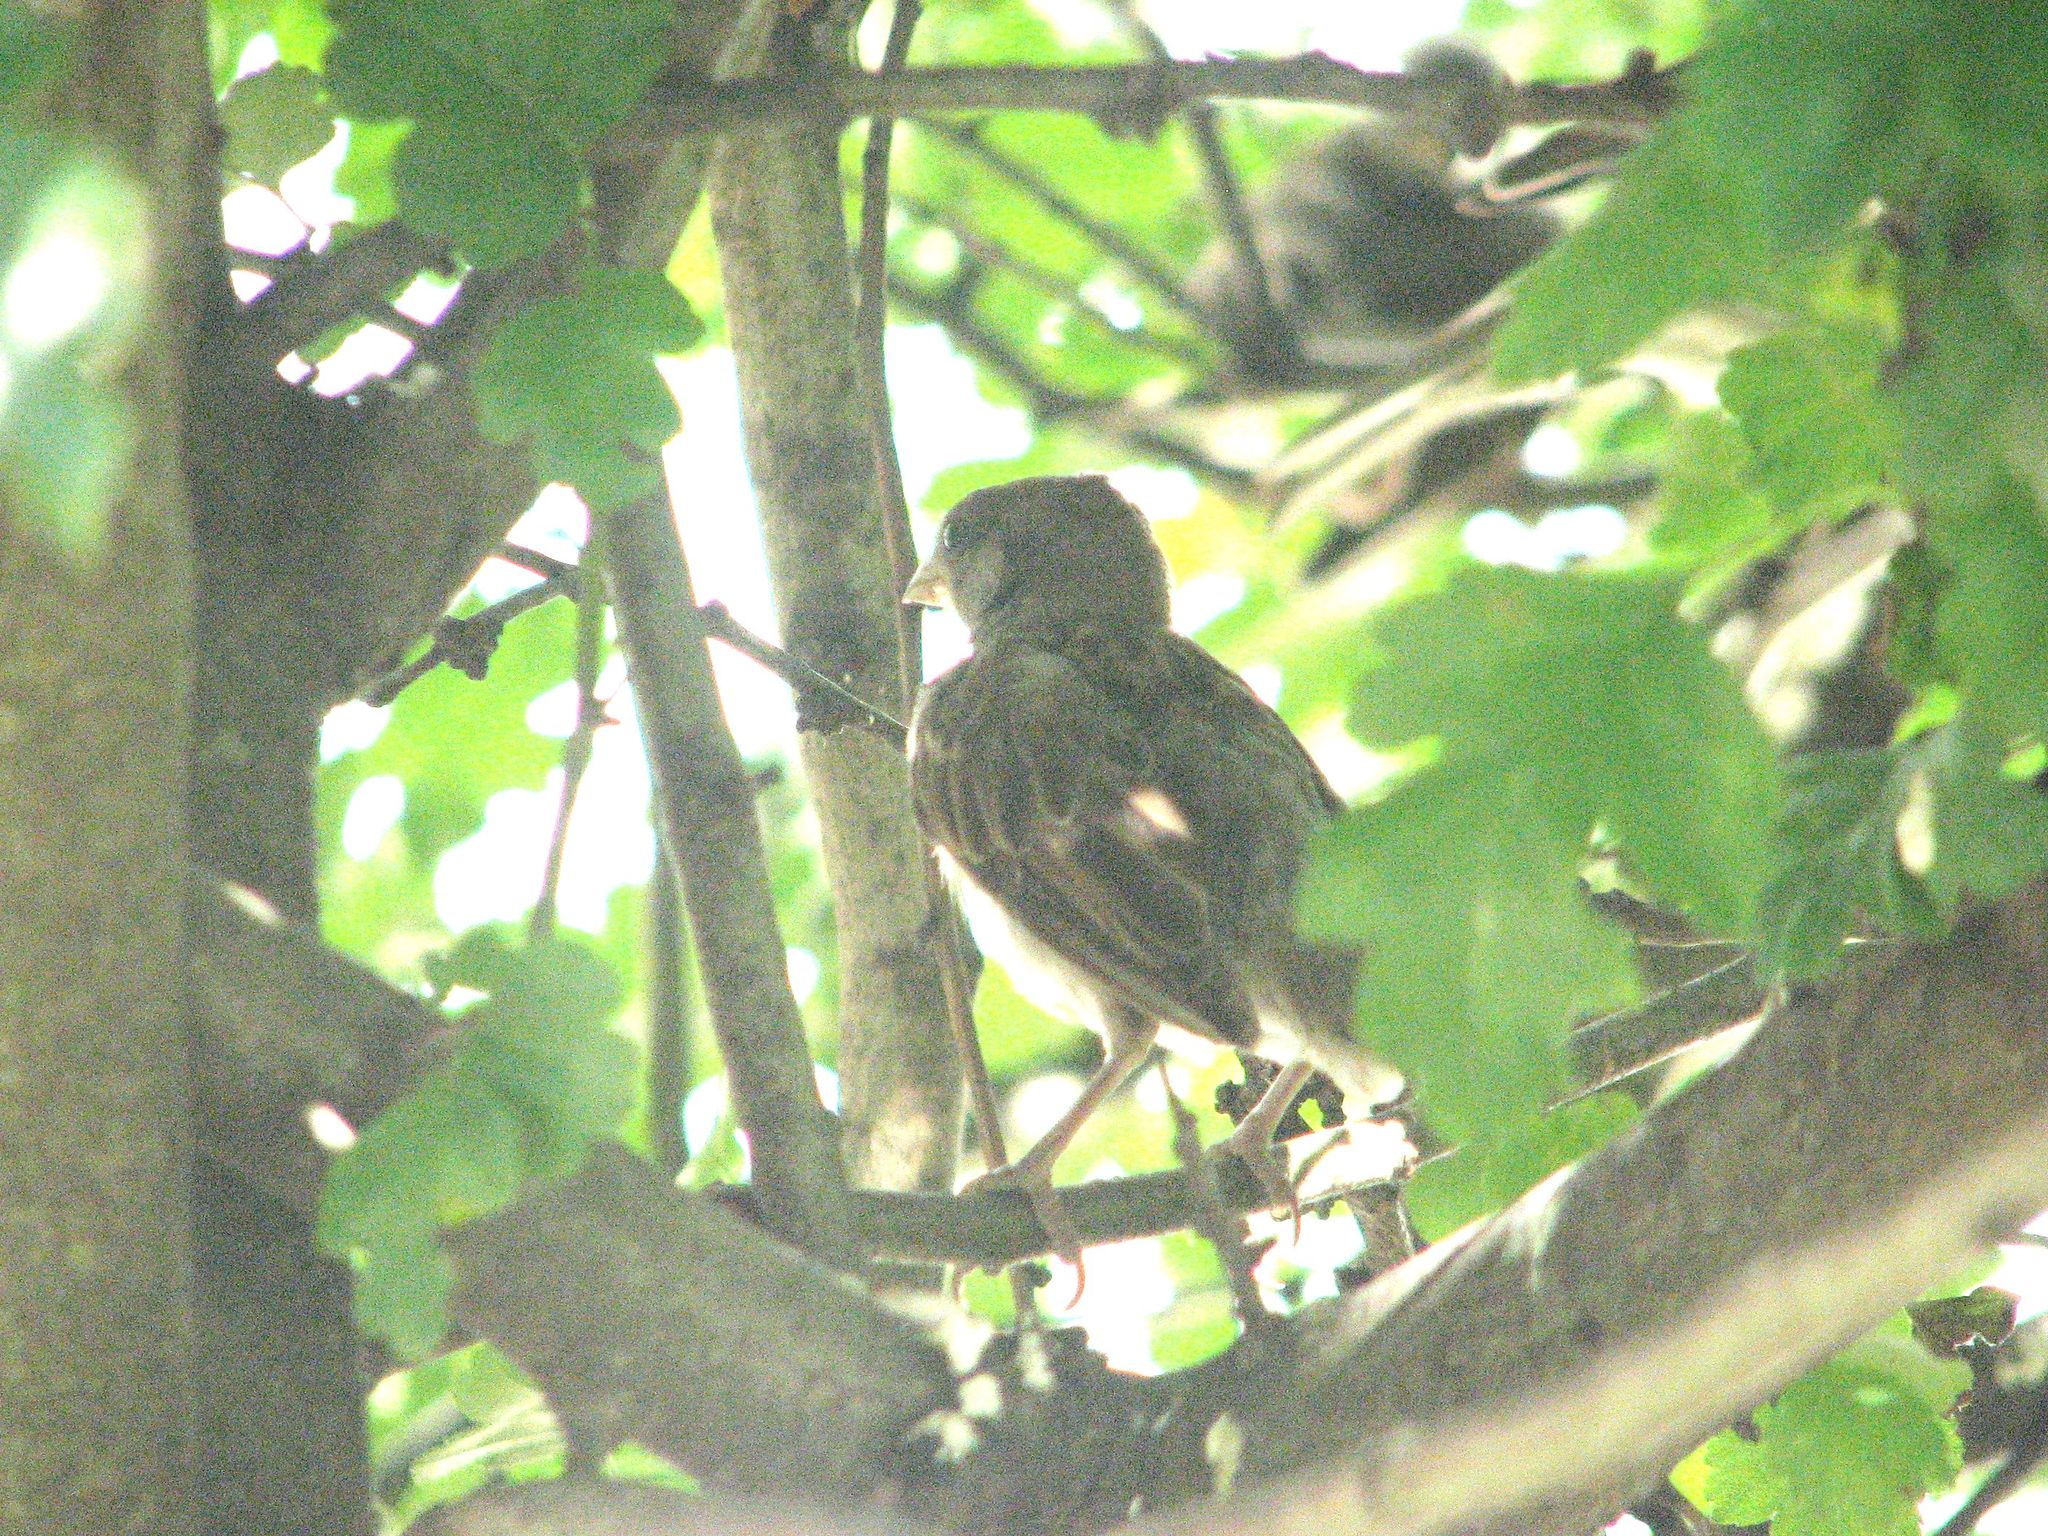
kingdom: Animalia
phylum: Chordata
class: Aves
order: Passeriformes
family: Passeridae
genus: Passer
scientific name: Passer domesticus
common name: House sparrow
